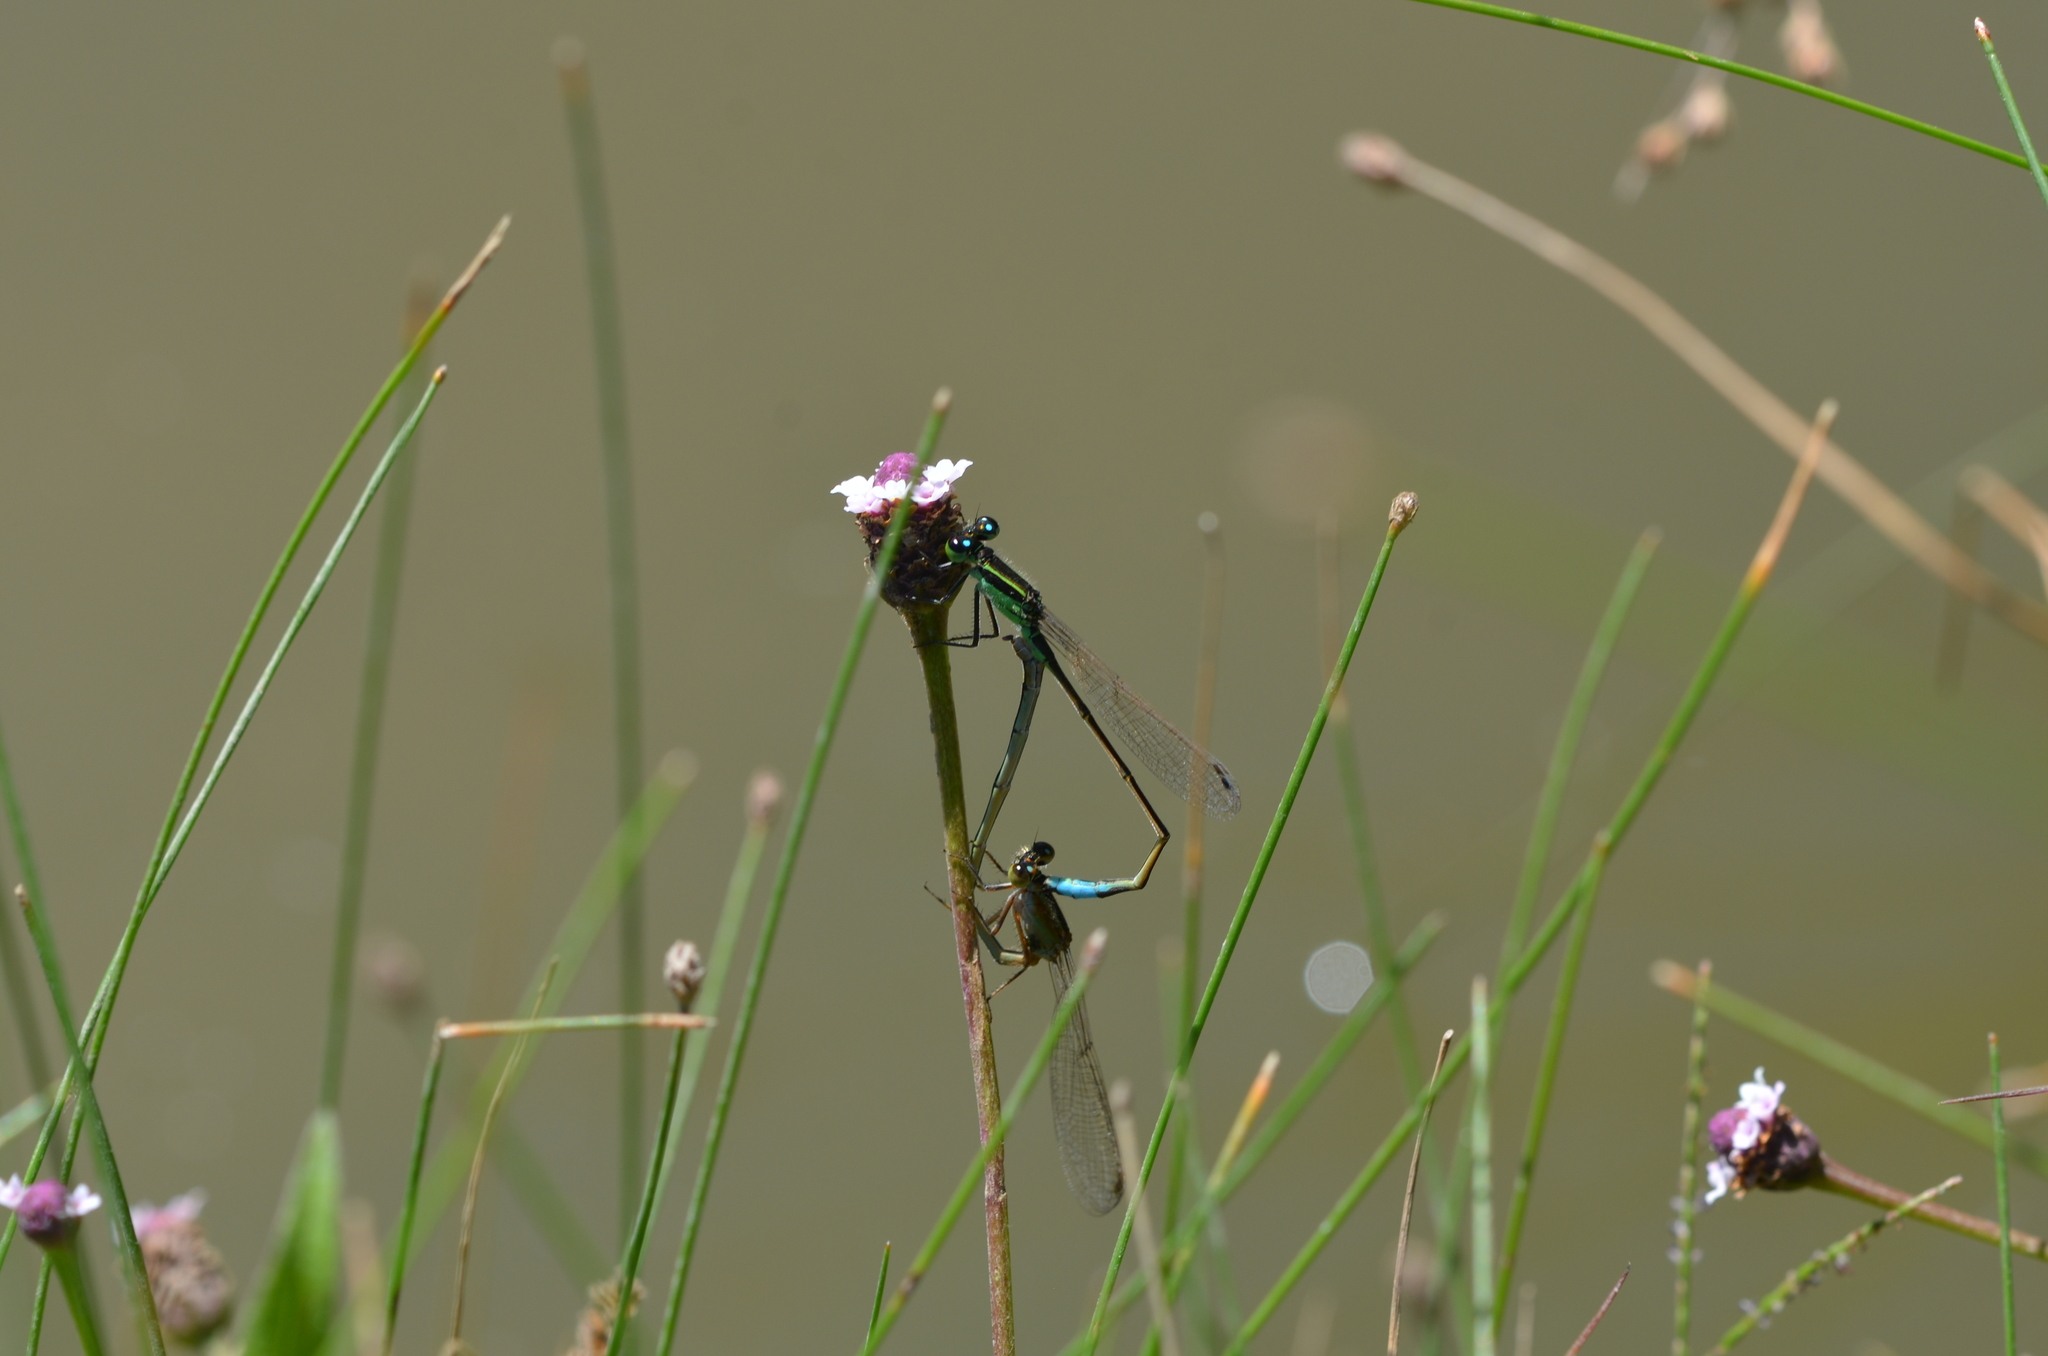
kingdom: Animalia
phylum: Arthropoda
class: Insecta
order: Odonata
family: Coenagrionidae
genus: Ischnura
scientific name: Ischnura ramburii
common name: Rambur's forktail
